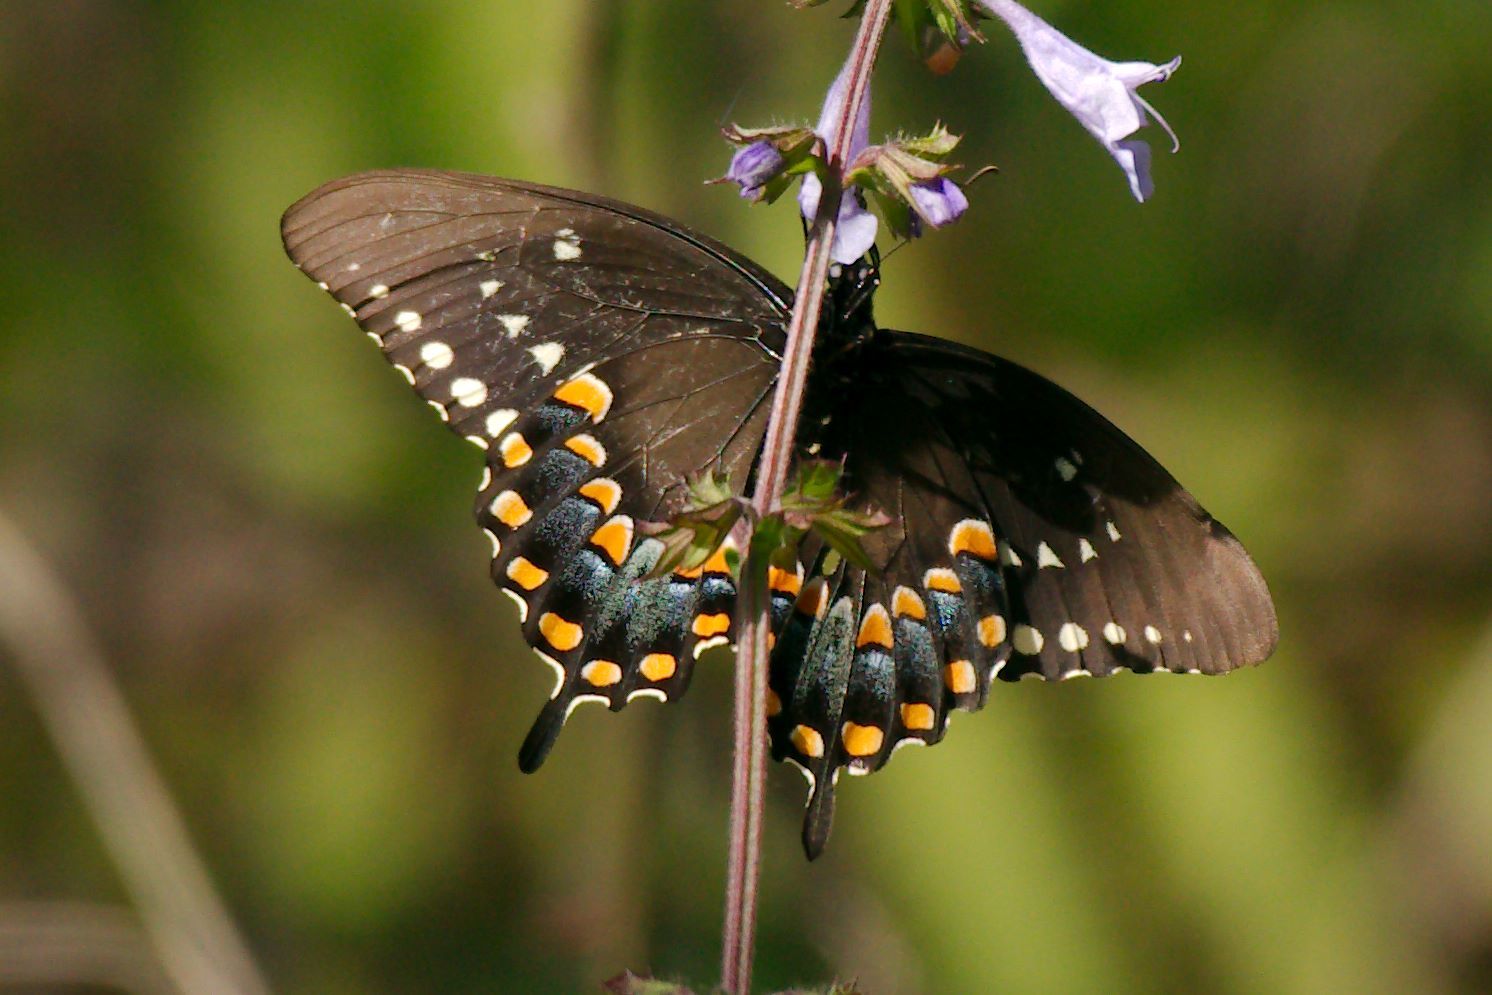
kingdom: Animalia
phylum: Arthropoda
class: Insecta
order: Lepidoptera
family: Papilionidae
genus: Papilio
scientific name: Papilio troilus
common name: Spicebush swallowtail
